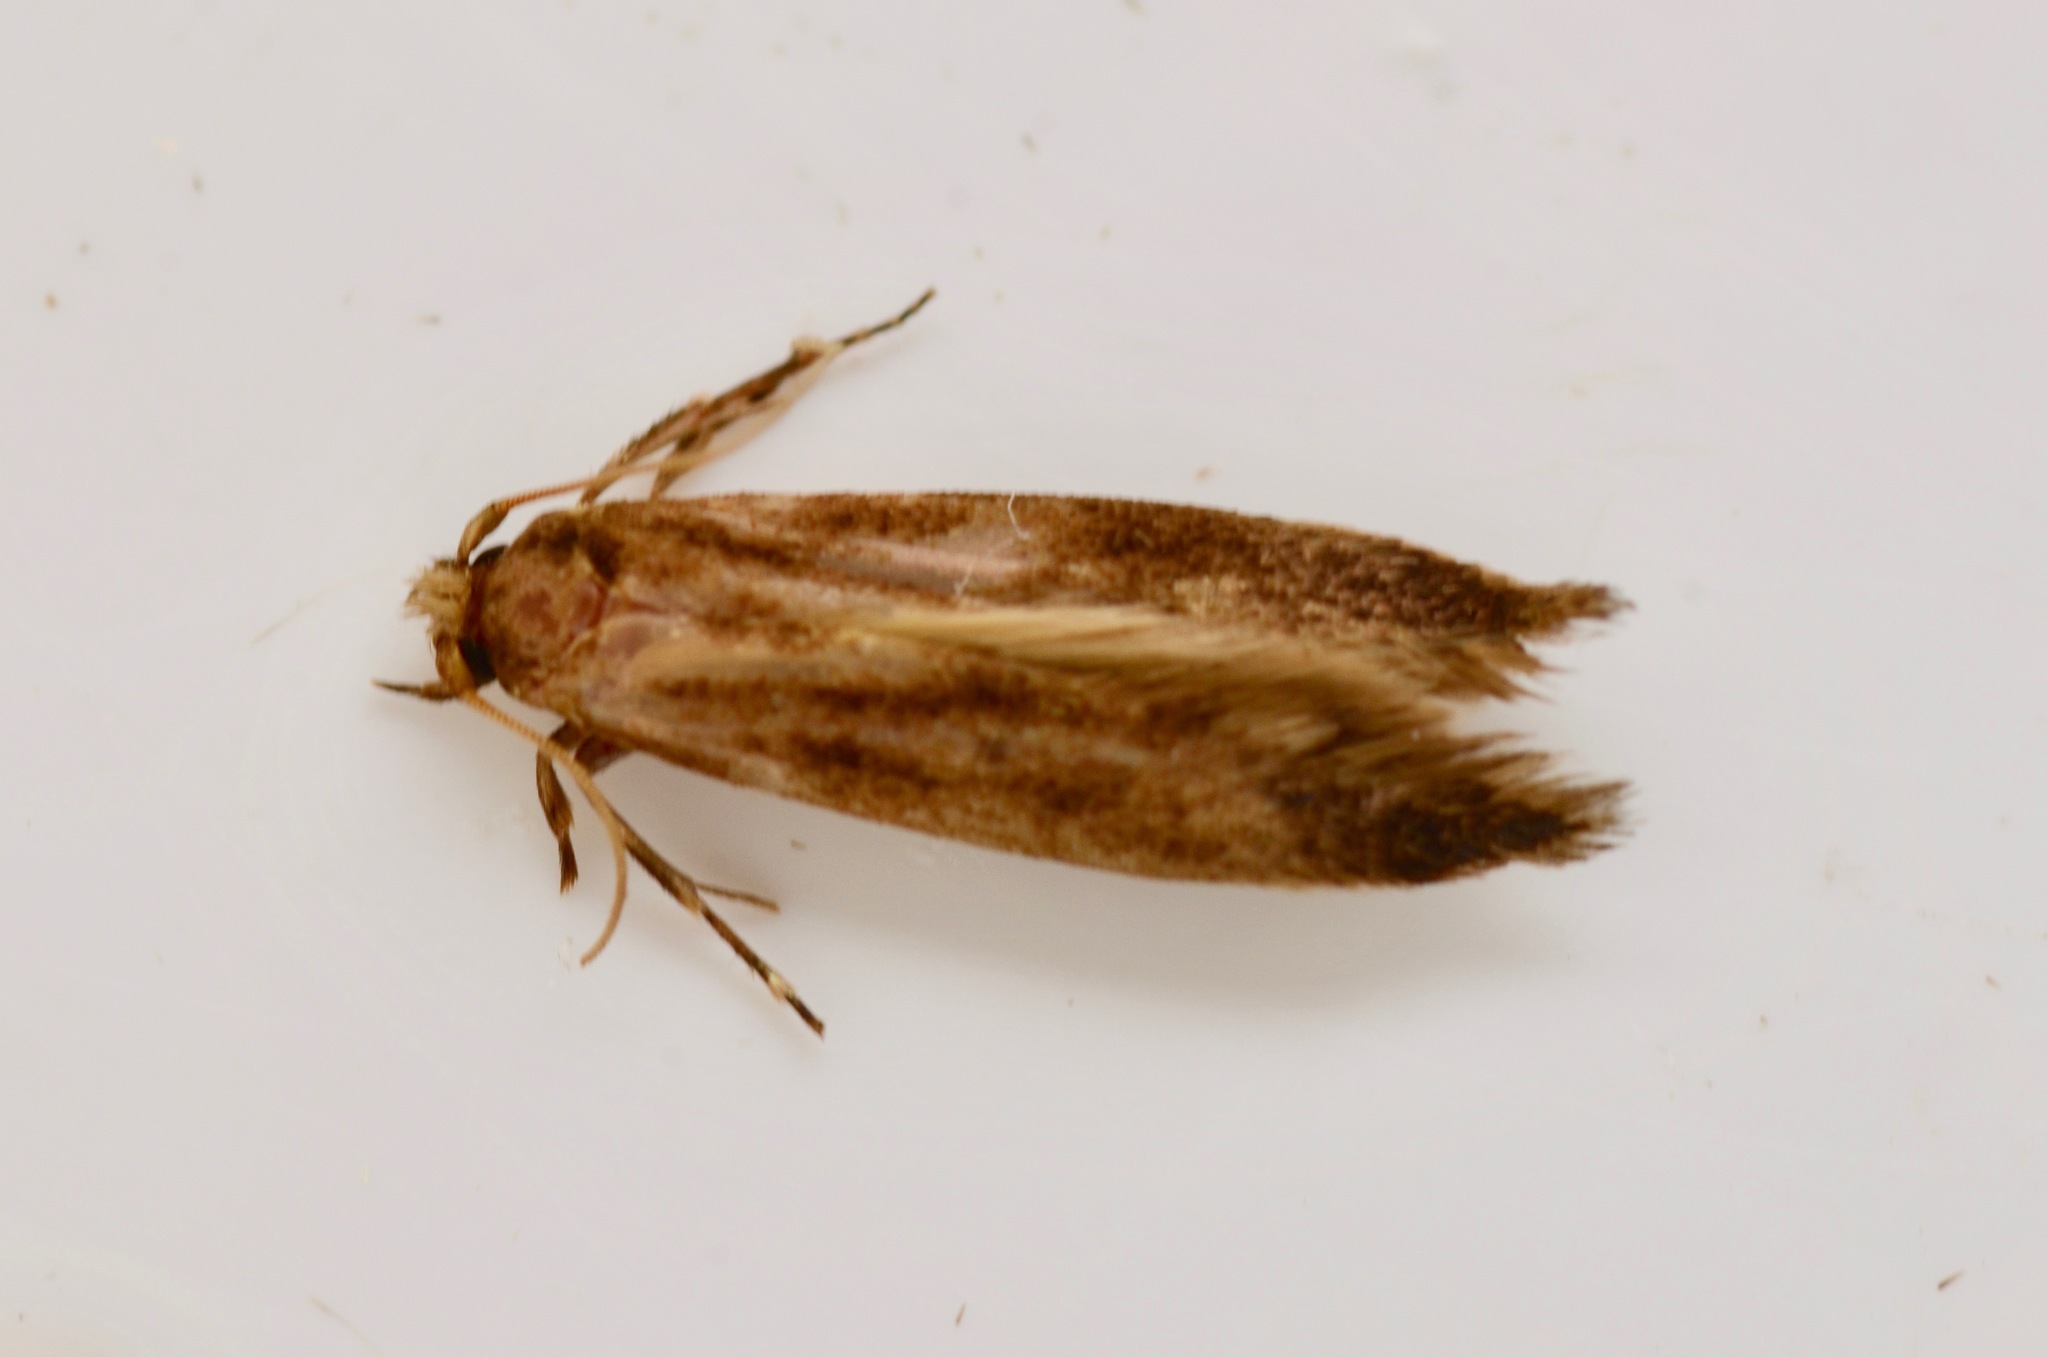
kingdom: Animalia
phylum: Arthropoda
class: Insecta
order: Lepidoptera
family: Tineidae
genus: Opogona
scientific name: Opogona omoscopa
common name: Moth
